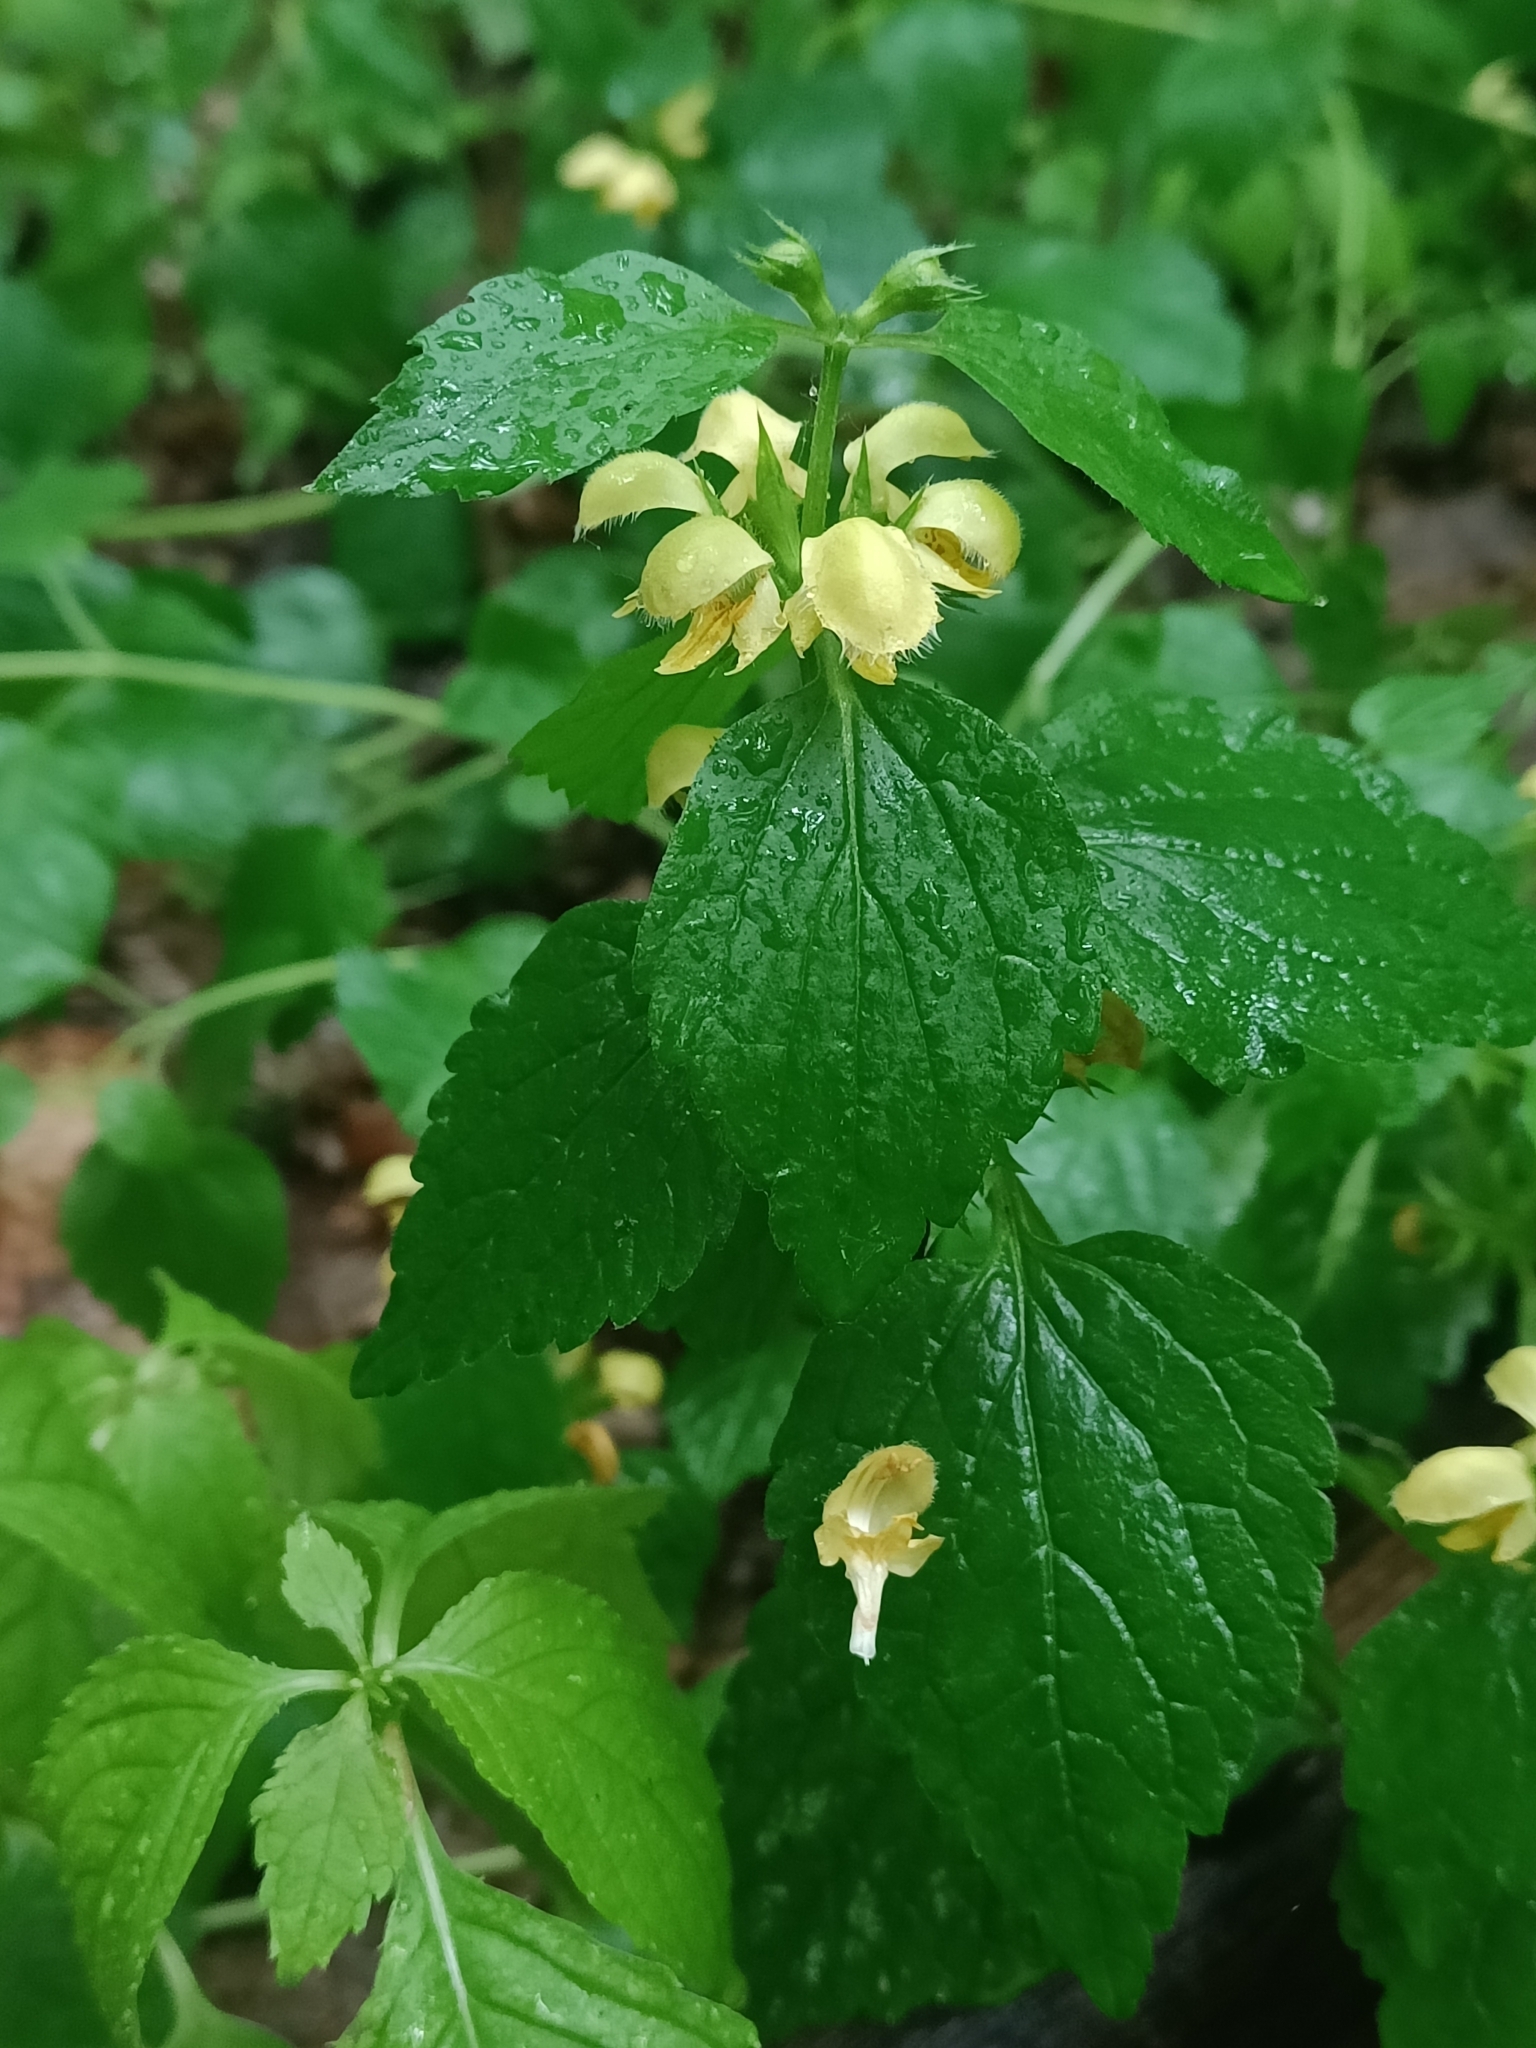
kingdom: Plantae
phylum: Tracheophyta
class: Magnoliopsida
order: Lamiales
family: Lamiaceae
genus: Lamium
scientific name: Lamium galeobdolon
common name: Yellow archangel
